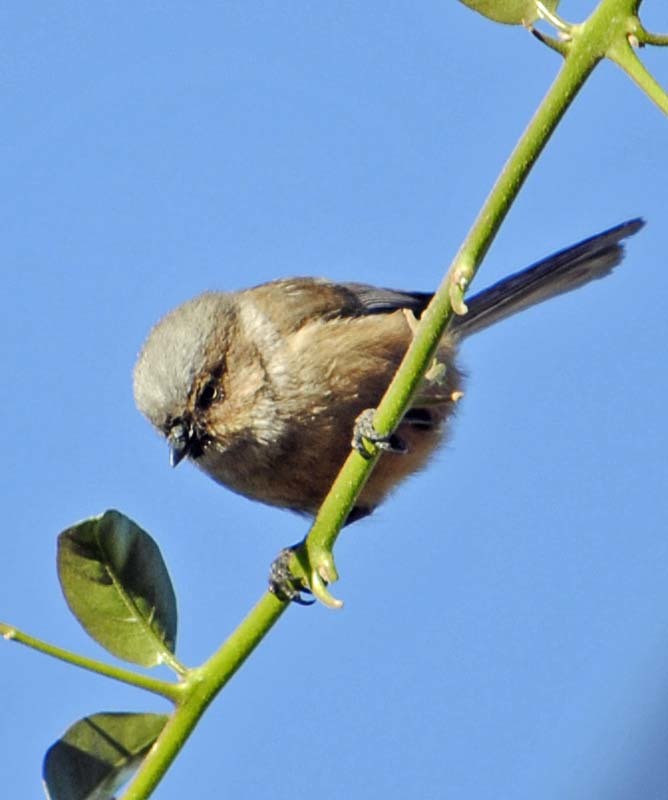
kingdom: Animalia
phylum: Chordata
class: Aves
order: Passeriformes
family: Aegithalidae
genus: Psaltriparus
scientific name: Psaltriparus minimus
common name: American bushtit
